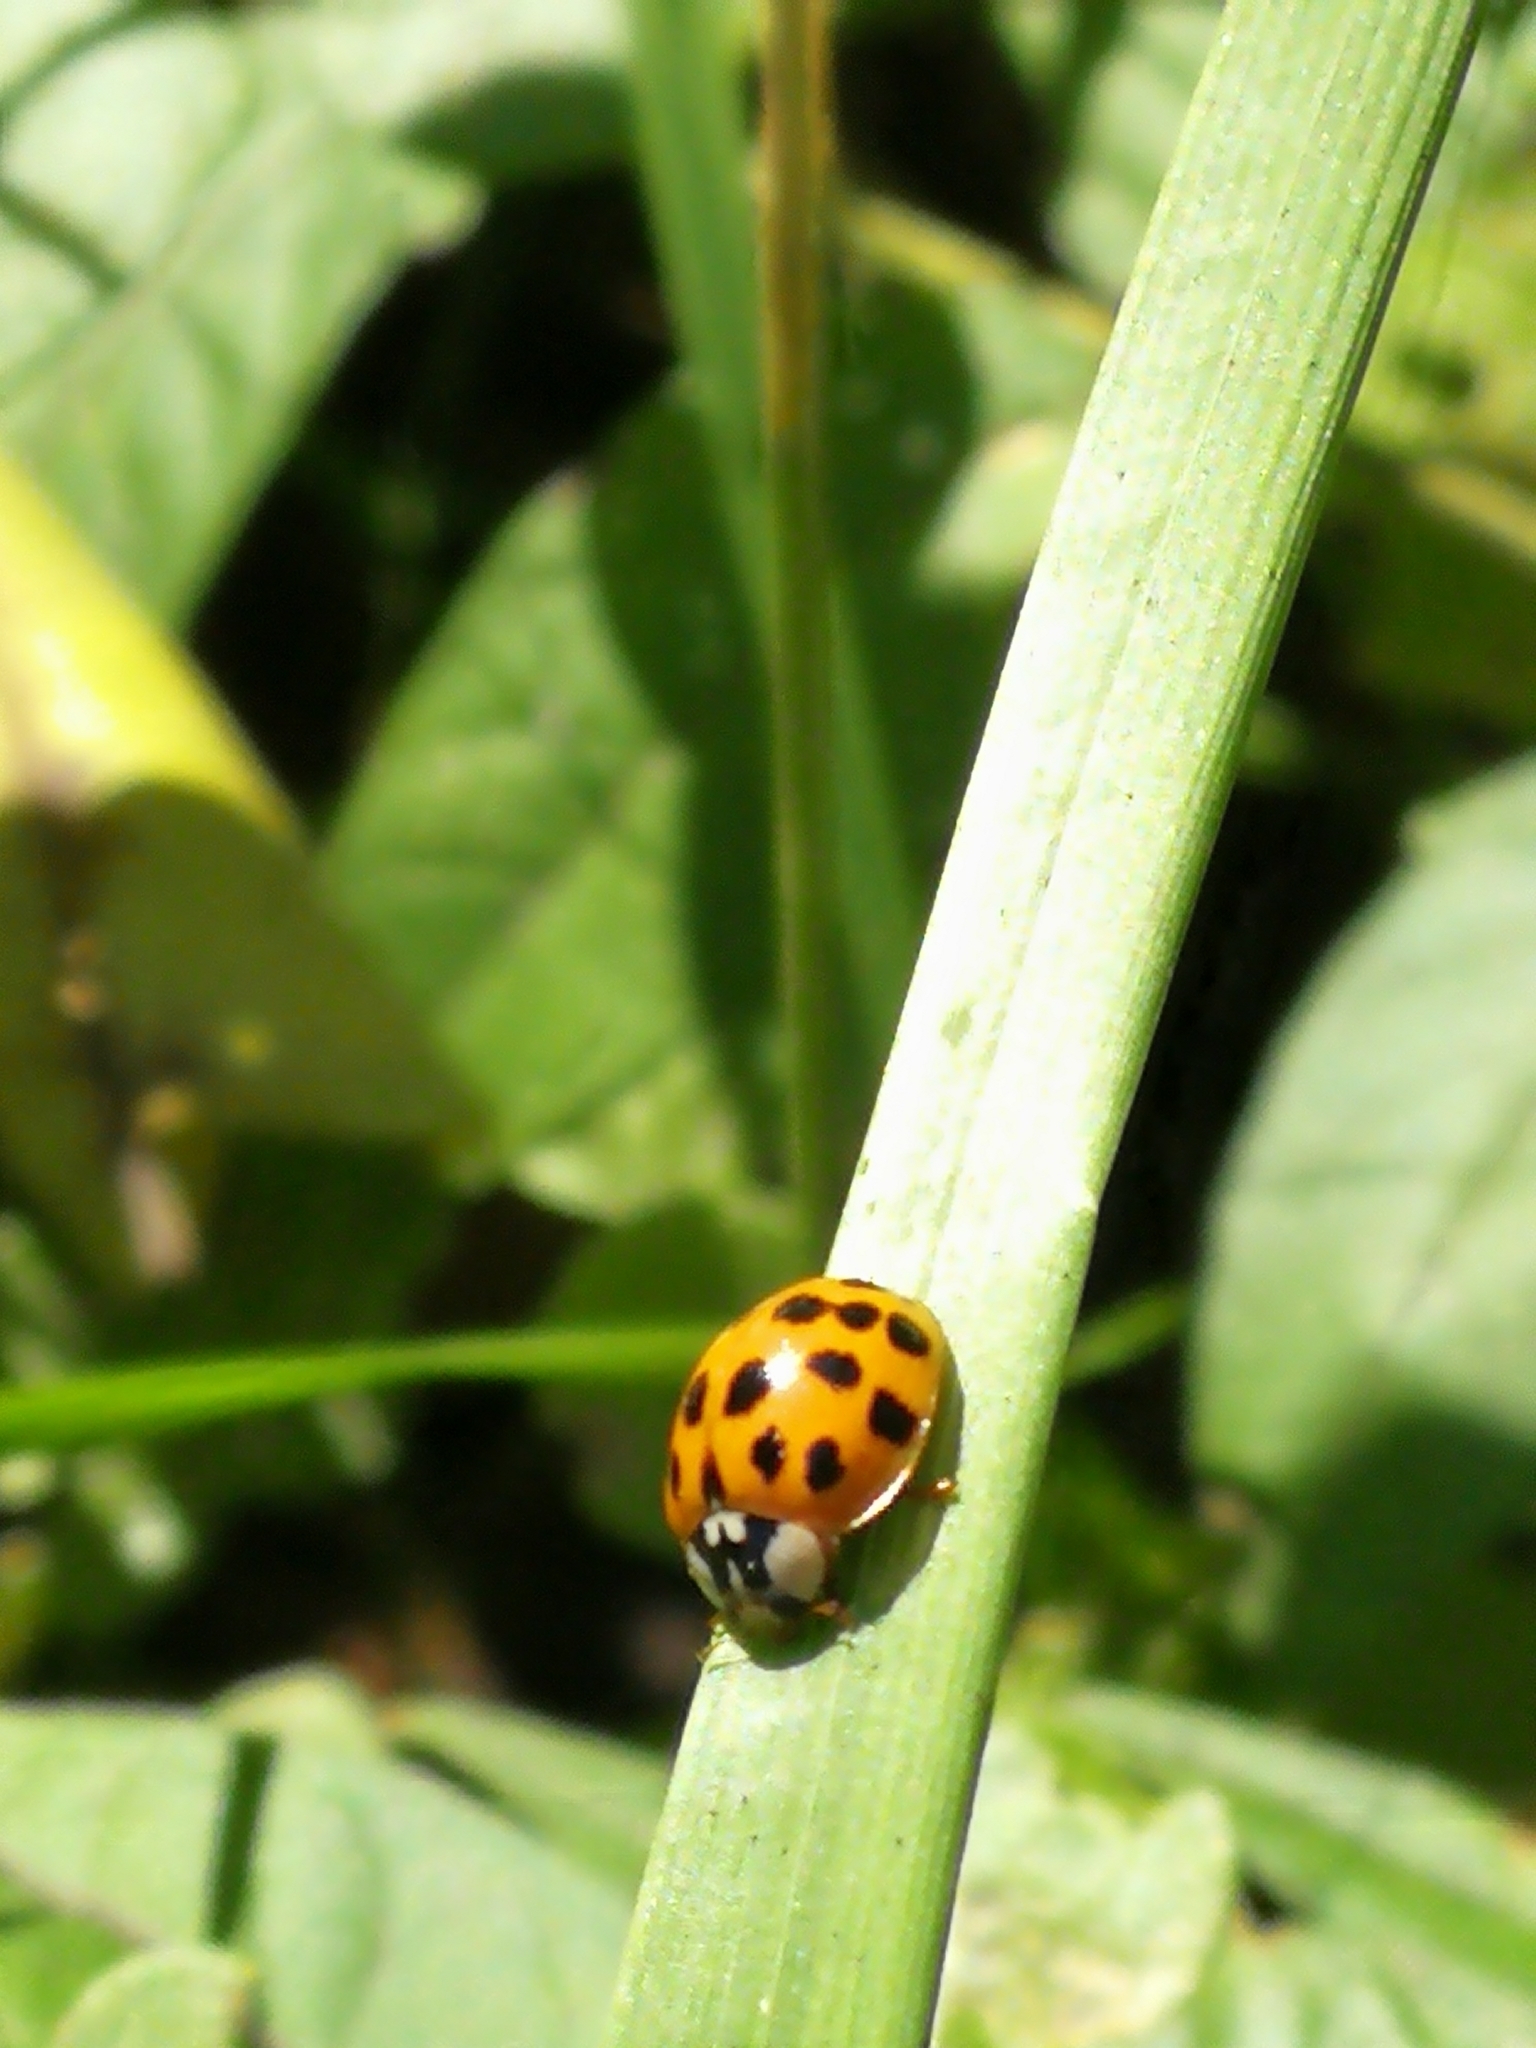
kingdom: Animalia
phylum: Arthropoda
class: Insecta
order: Coleoptera
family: Coccinellidae
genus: Harmonia
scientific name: Harmonia axyridis
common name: Harlequin ladybird
